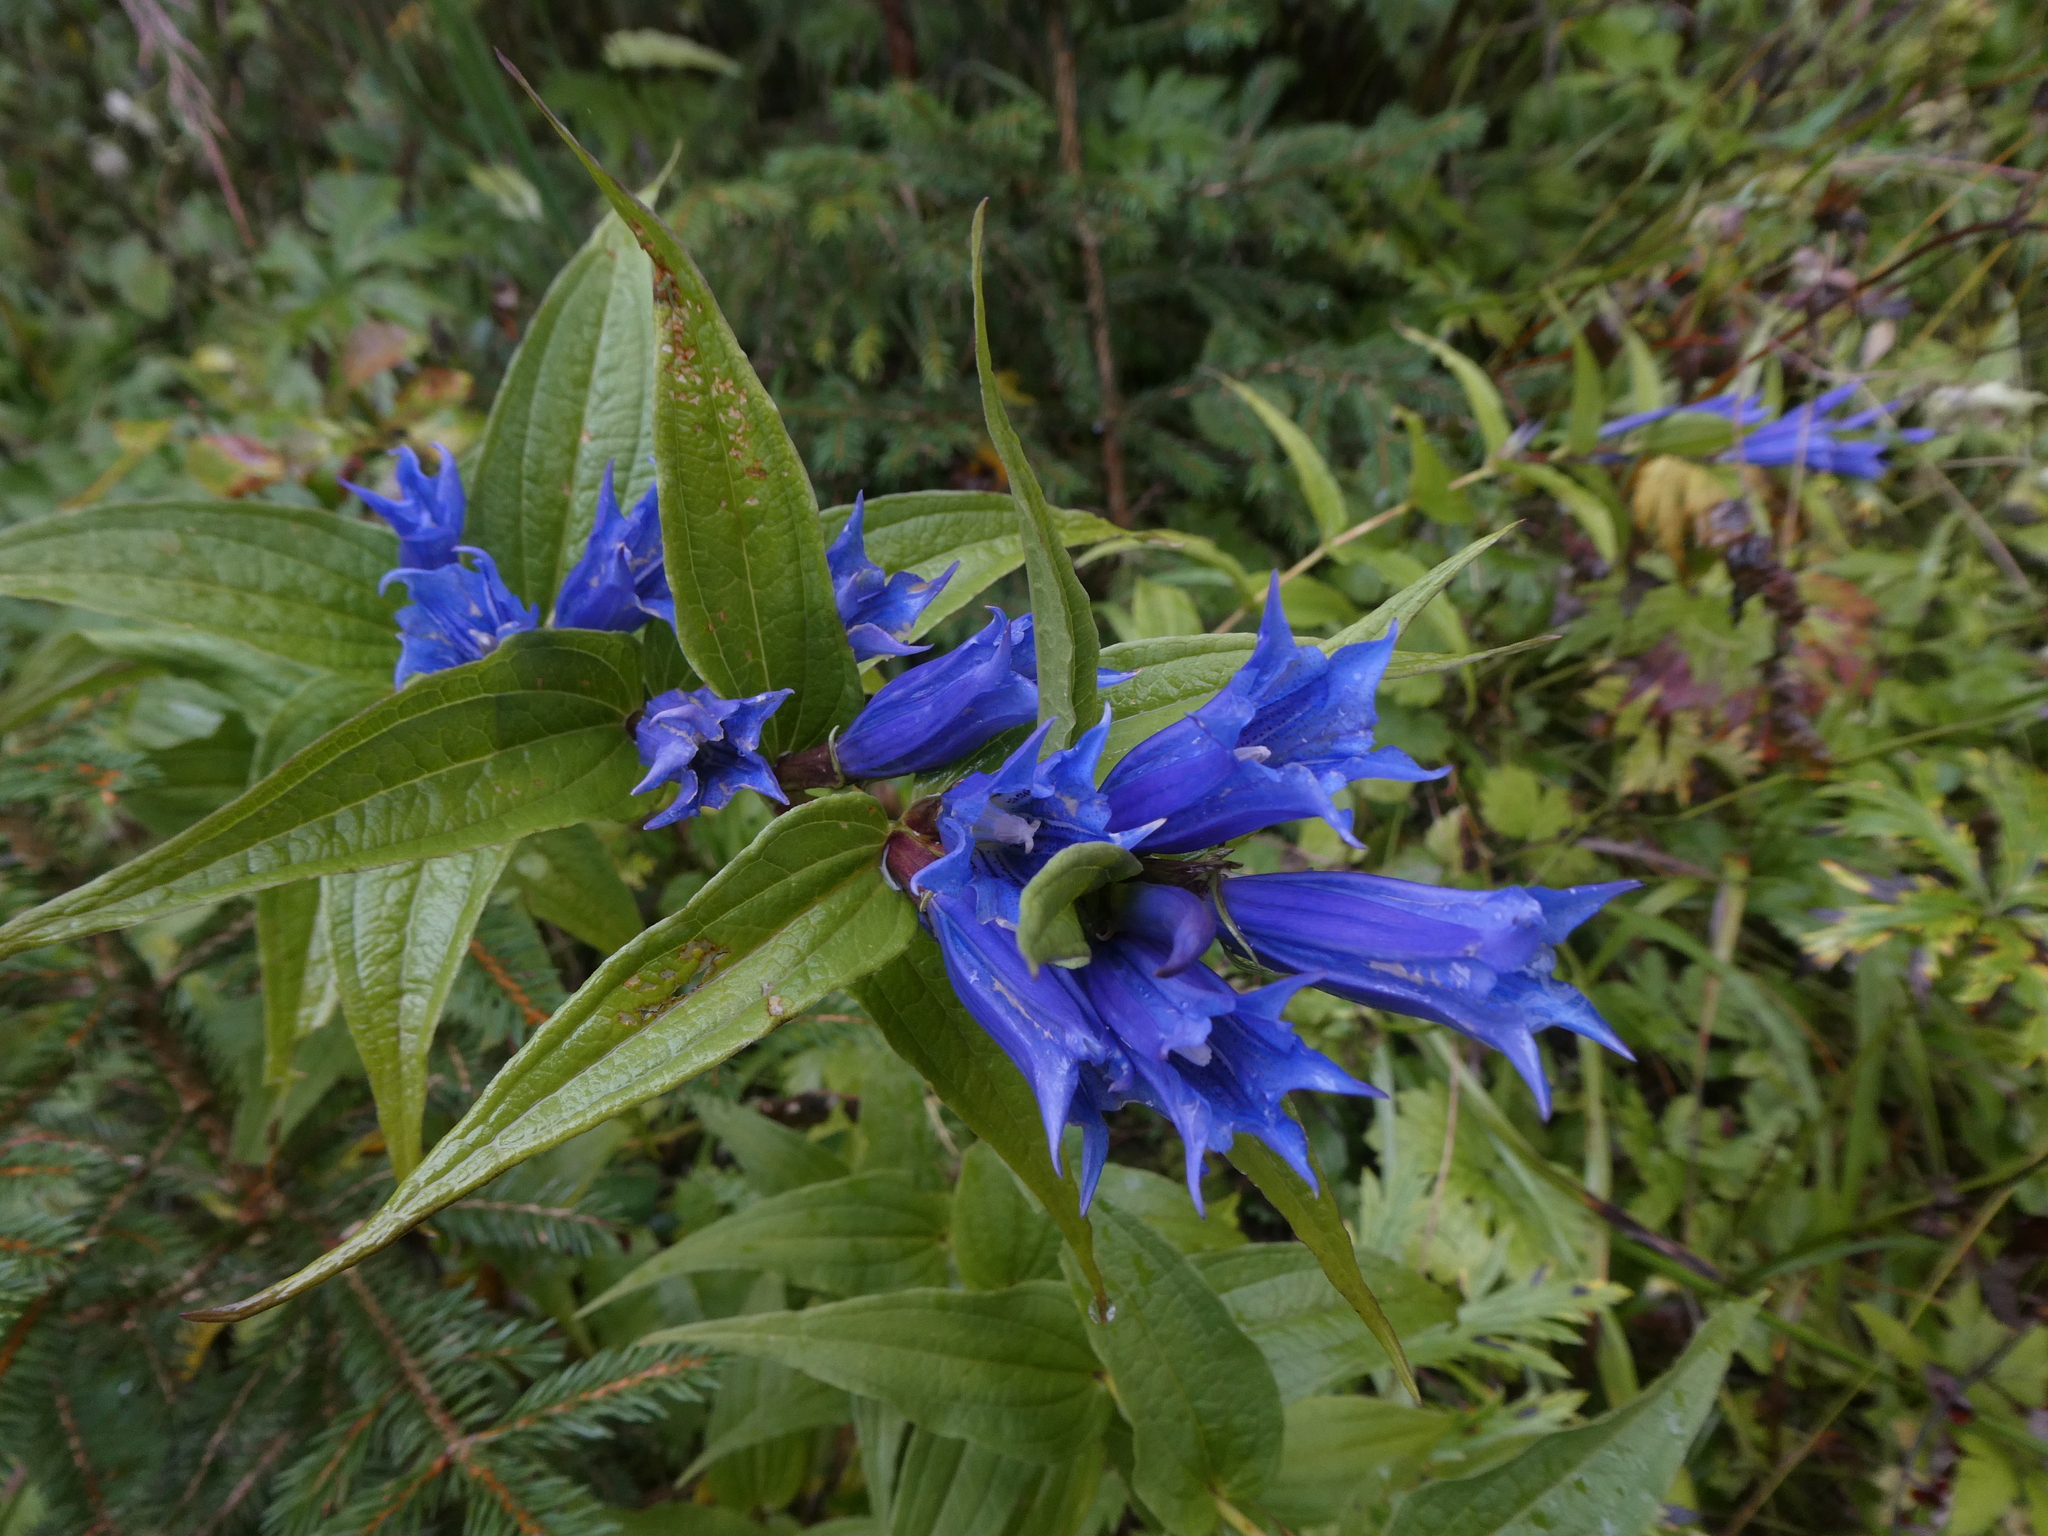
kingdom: Plantae
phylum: Tracheophyta
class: Magnoliopsida
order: Gentianales
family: Gentianaceae
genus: Gentiana
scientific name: Gentiana asclepiadea
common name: Willow gentian
